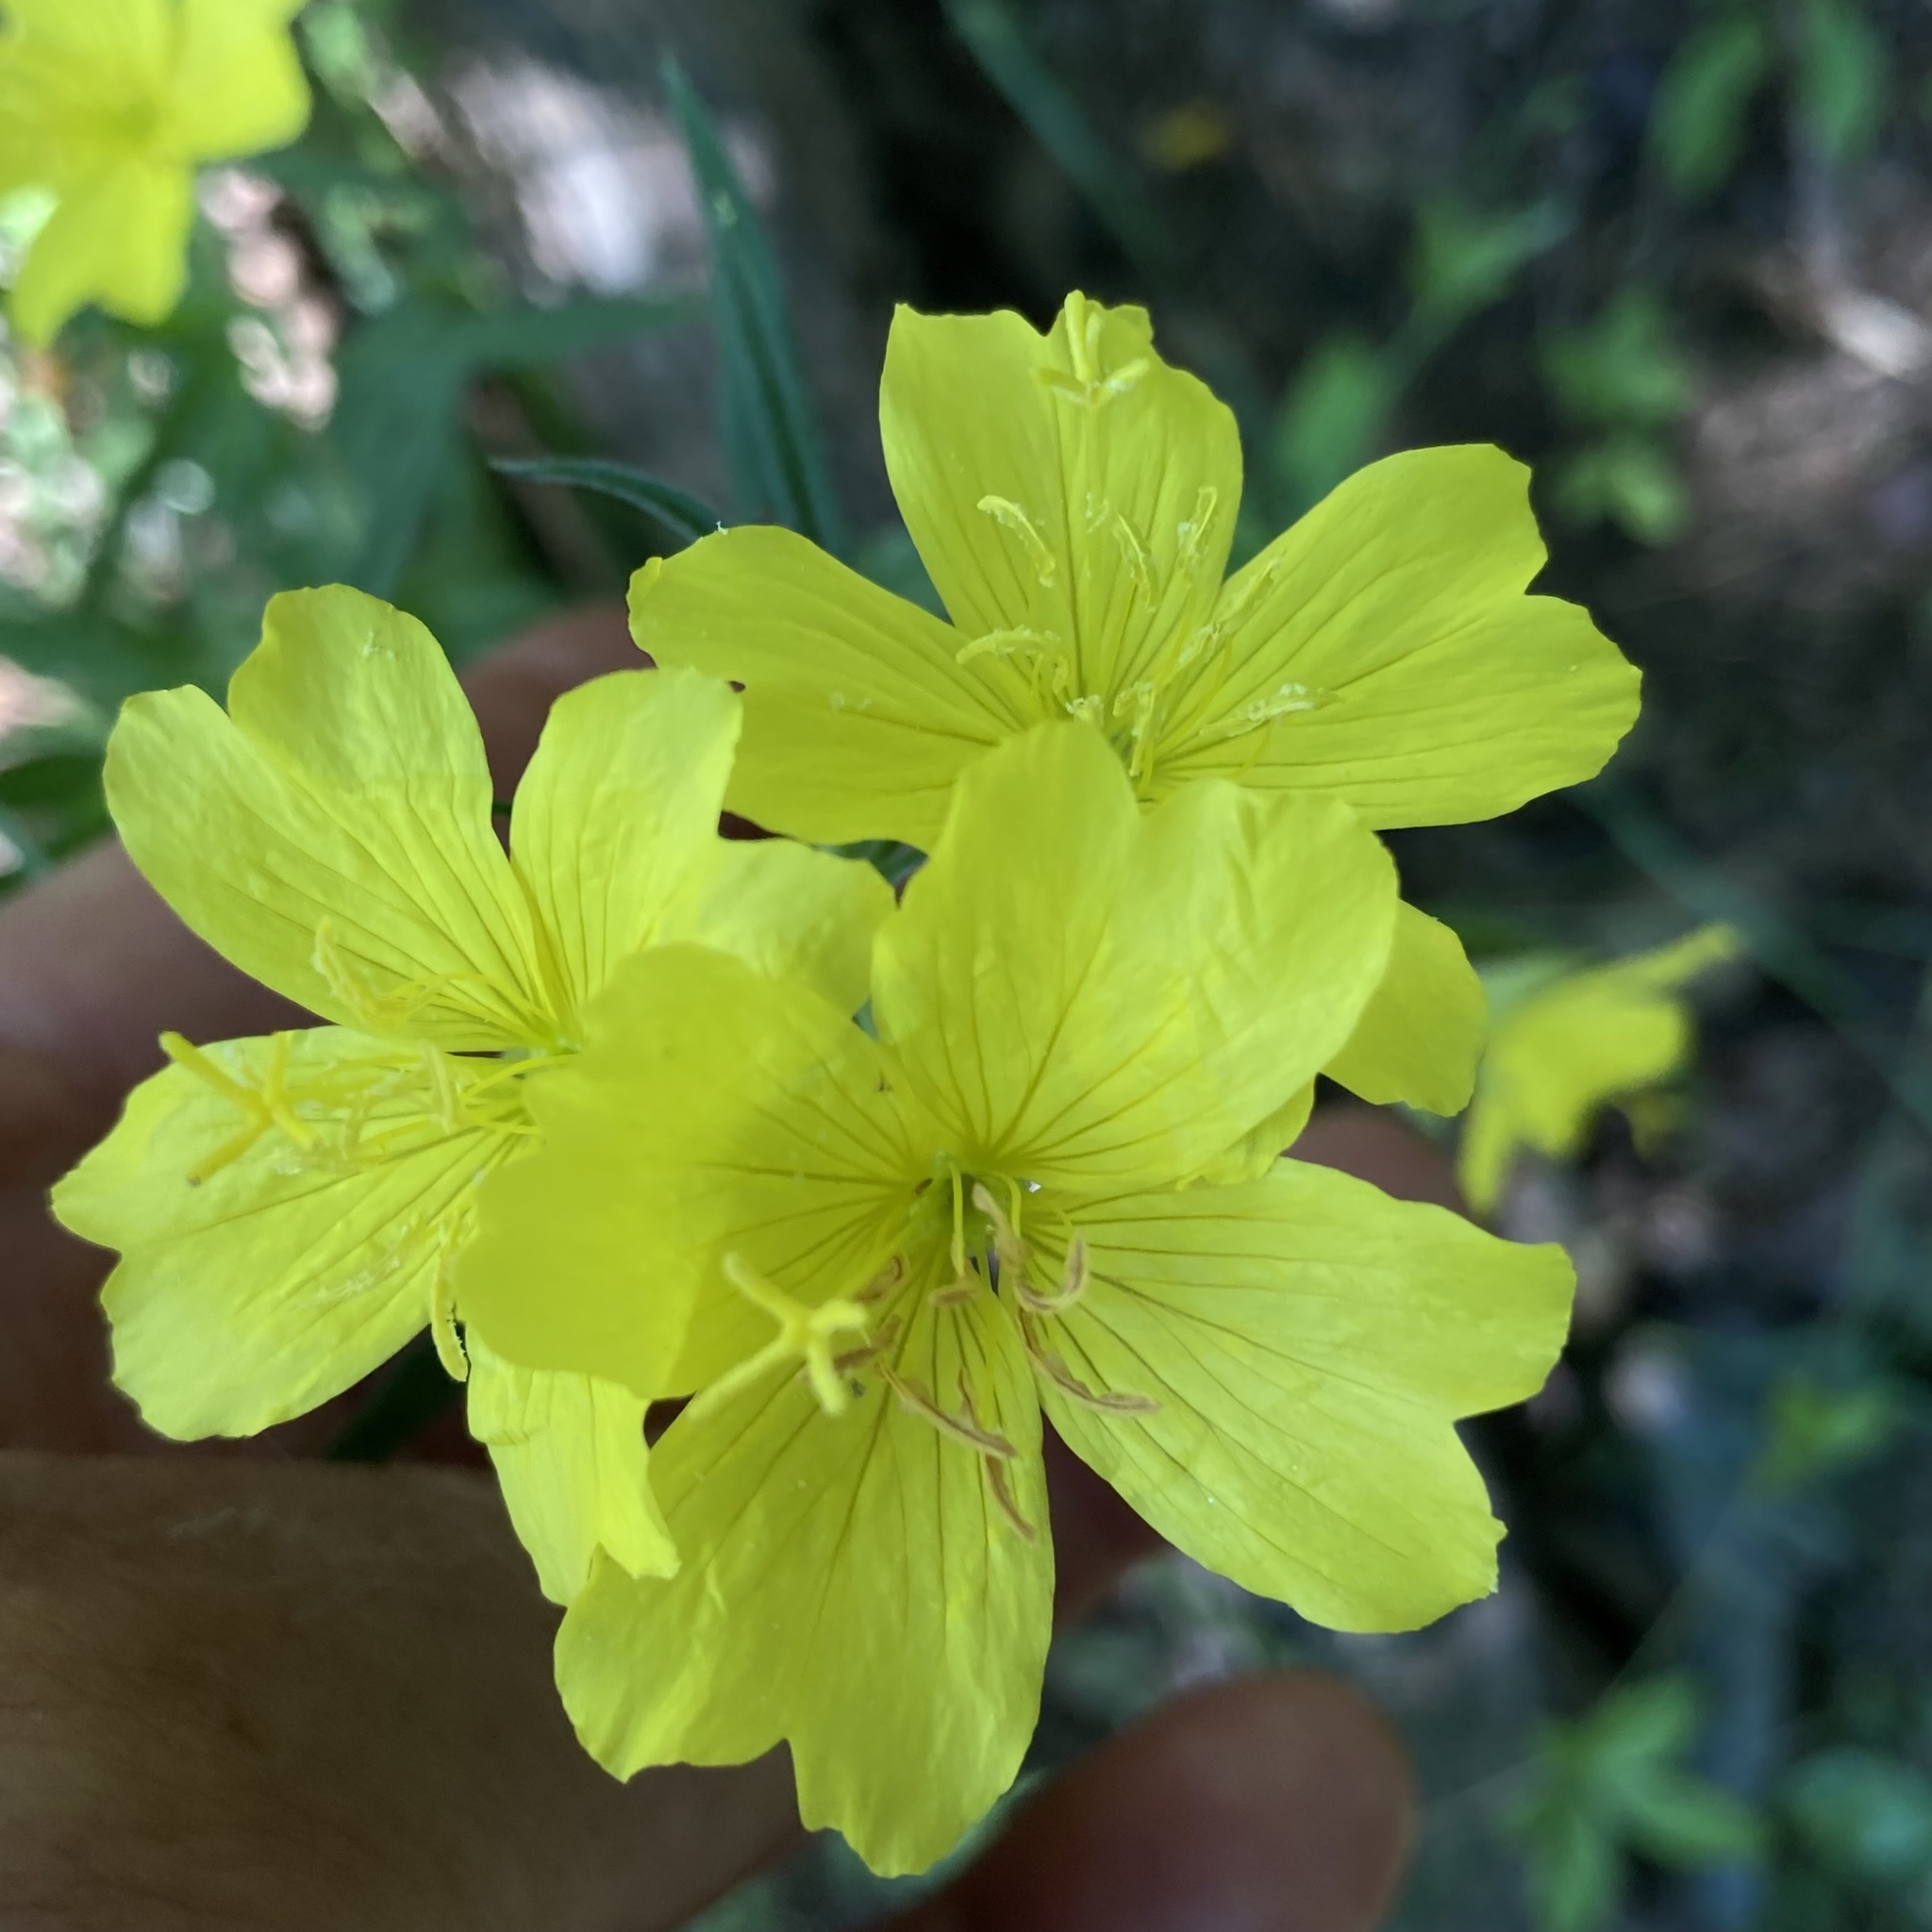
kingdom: Plantae
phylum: Tracheophyta
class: Magnoliopsida
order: Myrtales
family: Onagraceae
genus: Oenothera
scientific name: Oenothera fruticosa
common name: Southern sundrops
